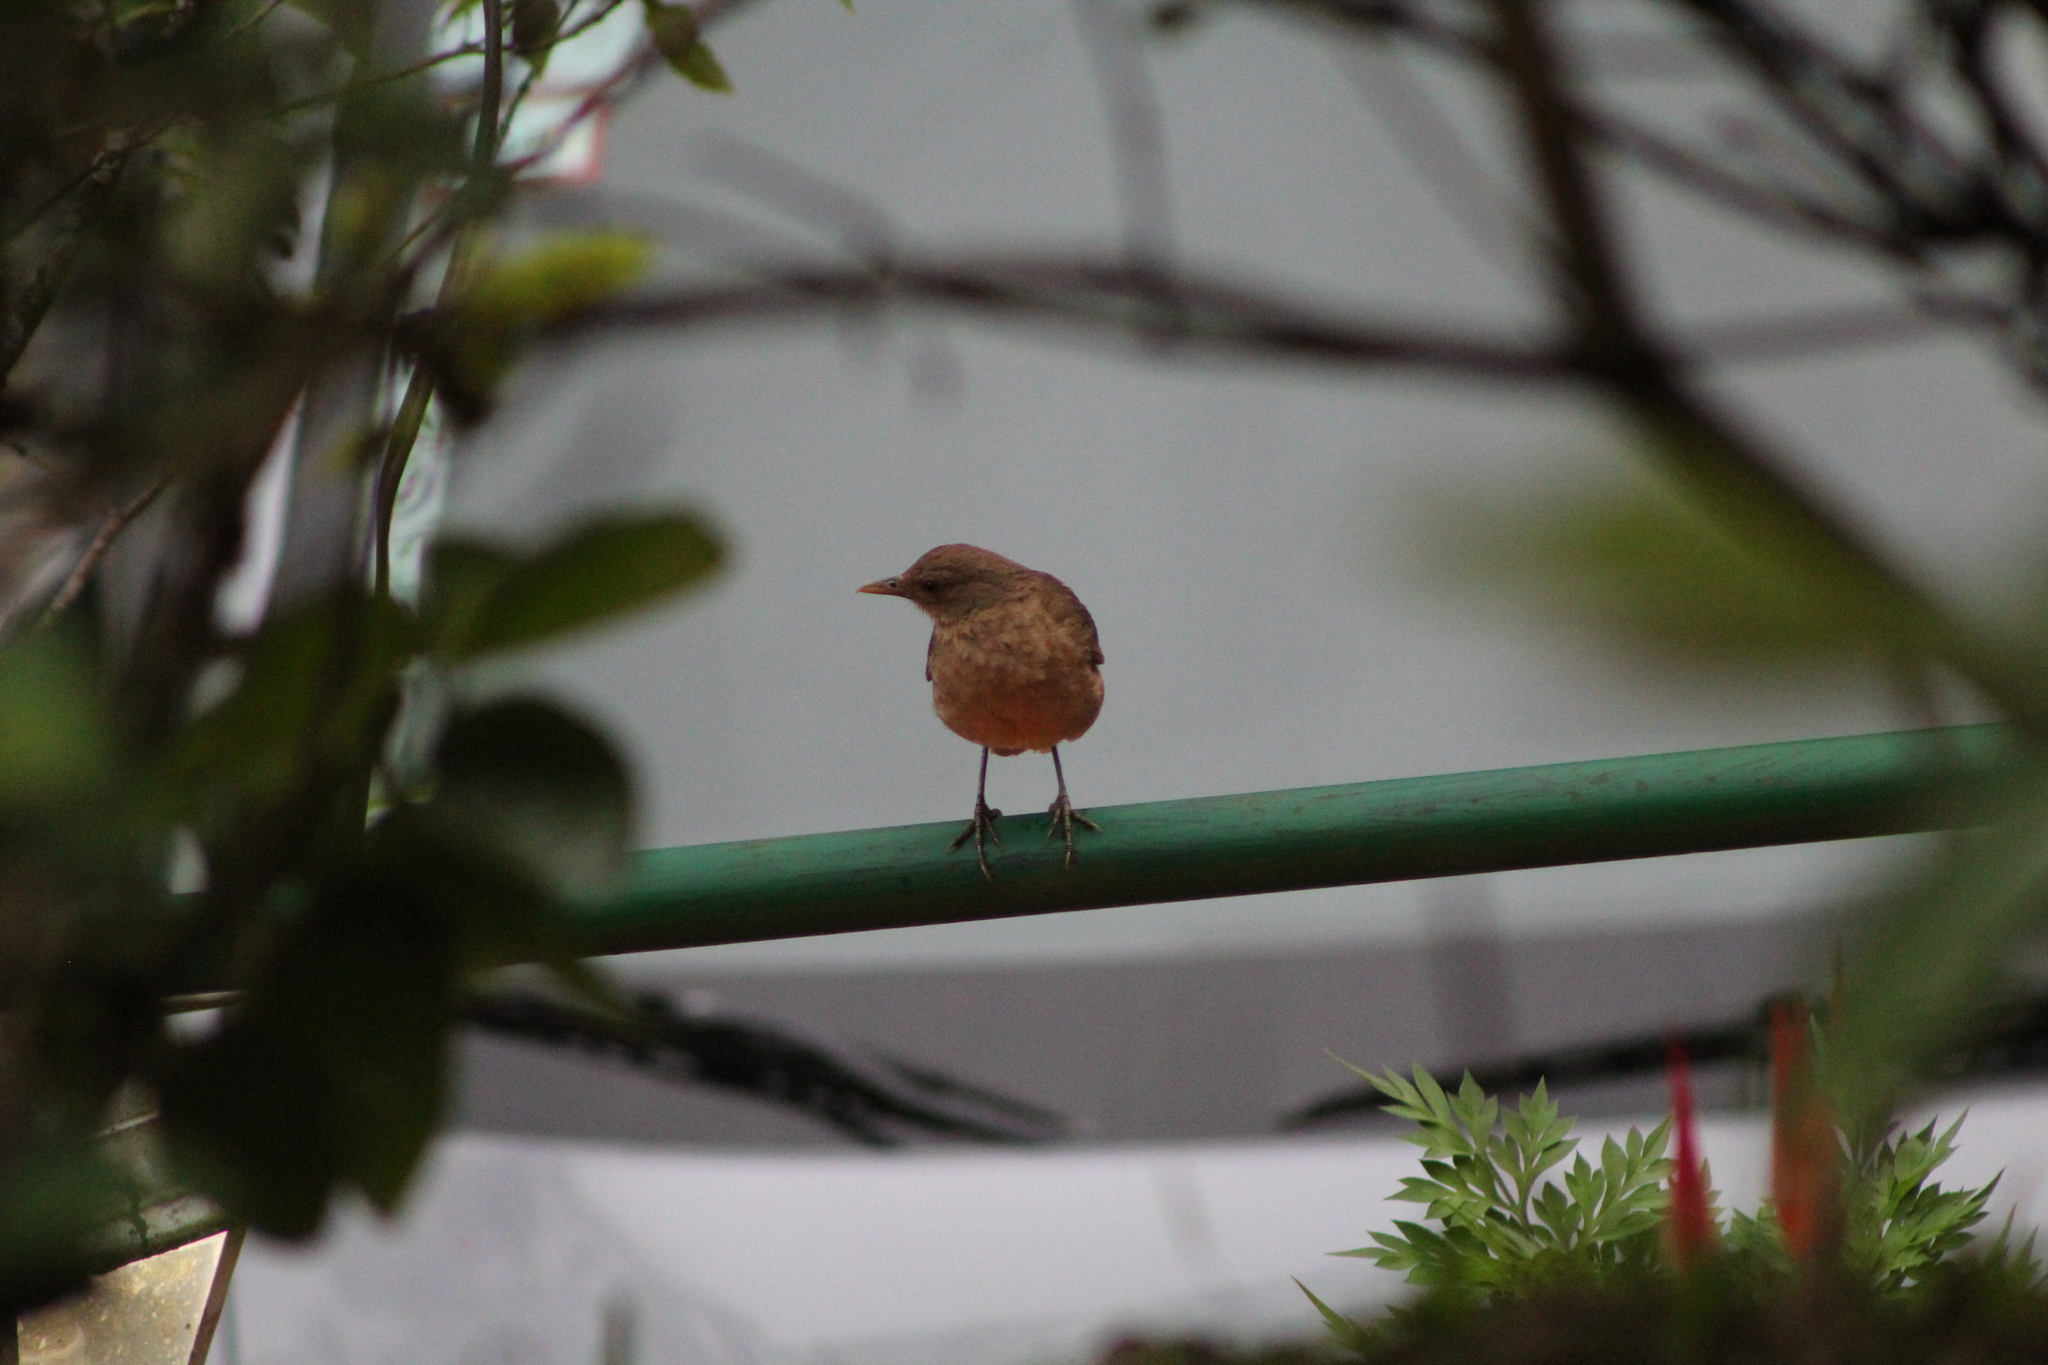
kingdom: Animalia
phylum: Chordata
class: Aves
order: Passeriformes
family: Turdidae
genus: Turdus
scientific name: Turdus grayi
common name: Clay-colored thrush
